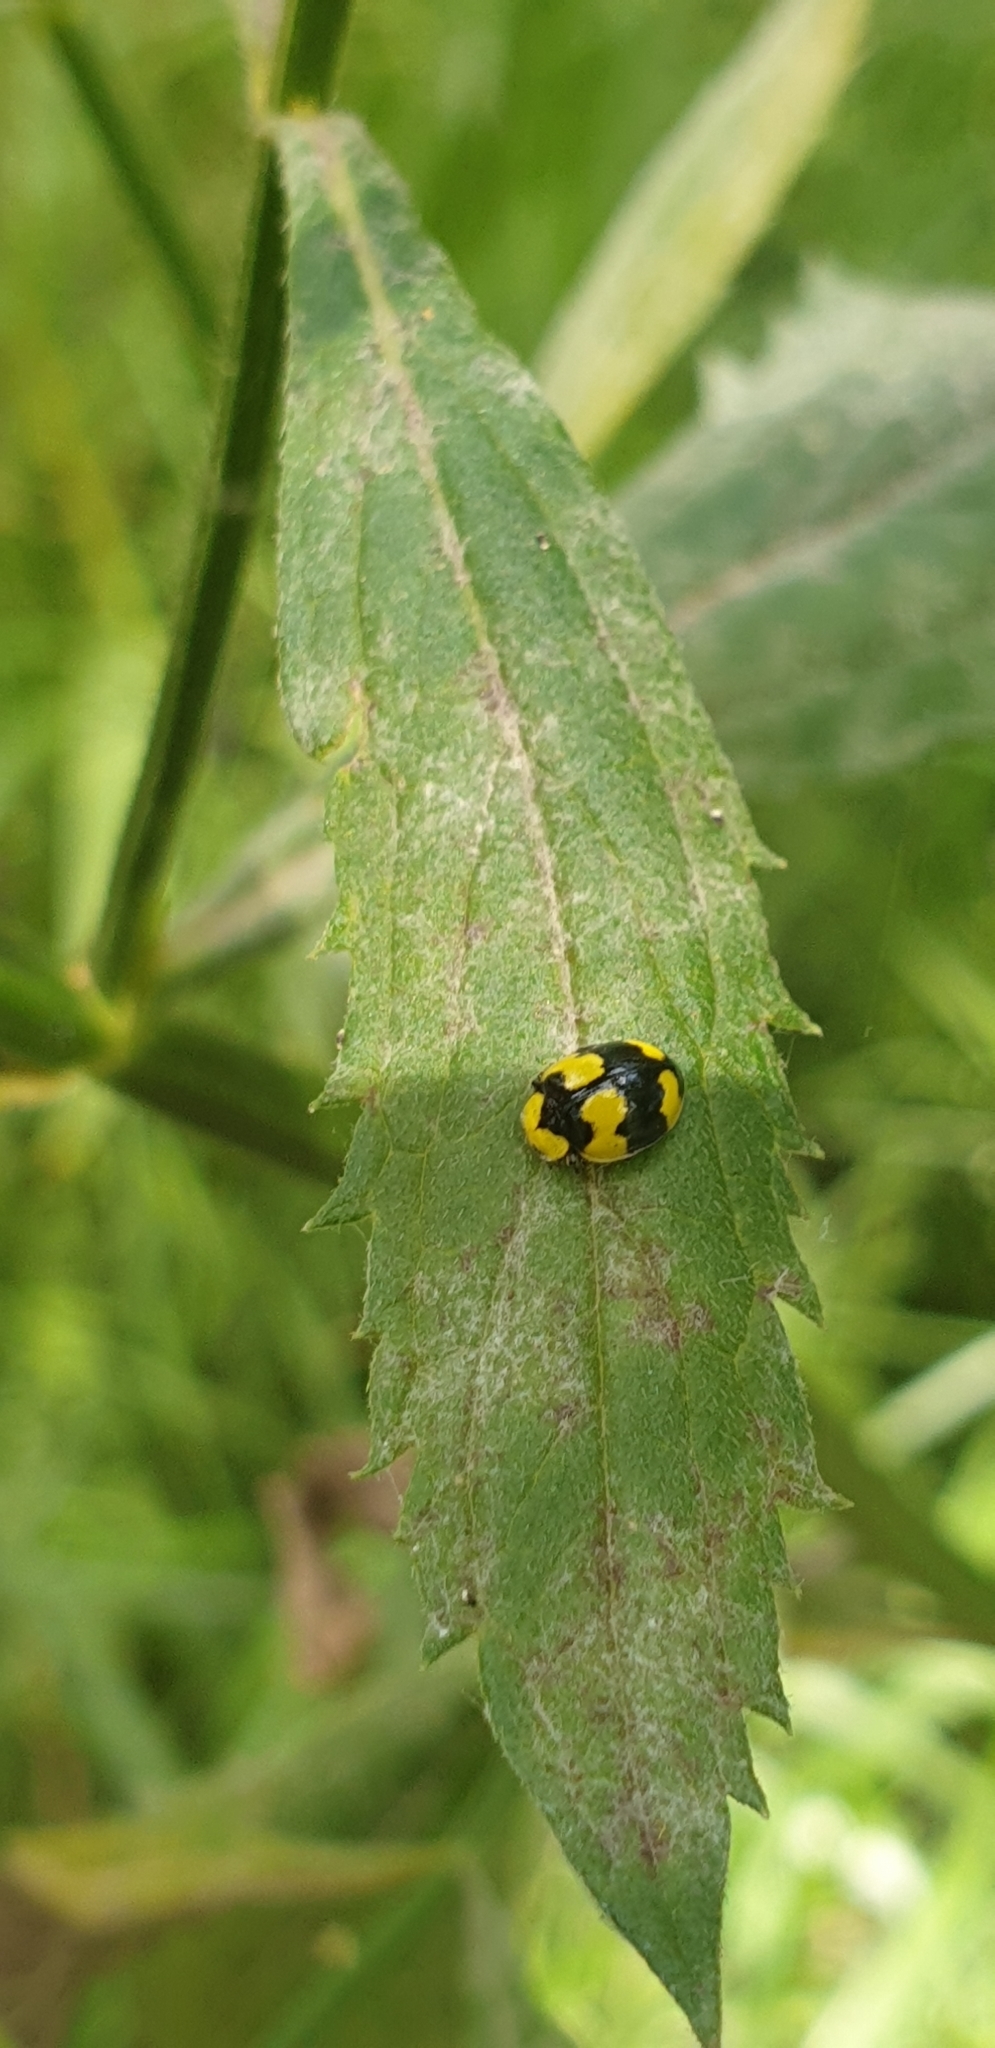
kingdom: Animalia
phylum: Arthropoda
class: Insecta
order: Coleoptera
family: Coccinellidae
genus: Illeis
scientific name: Illeis galbula
